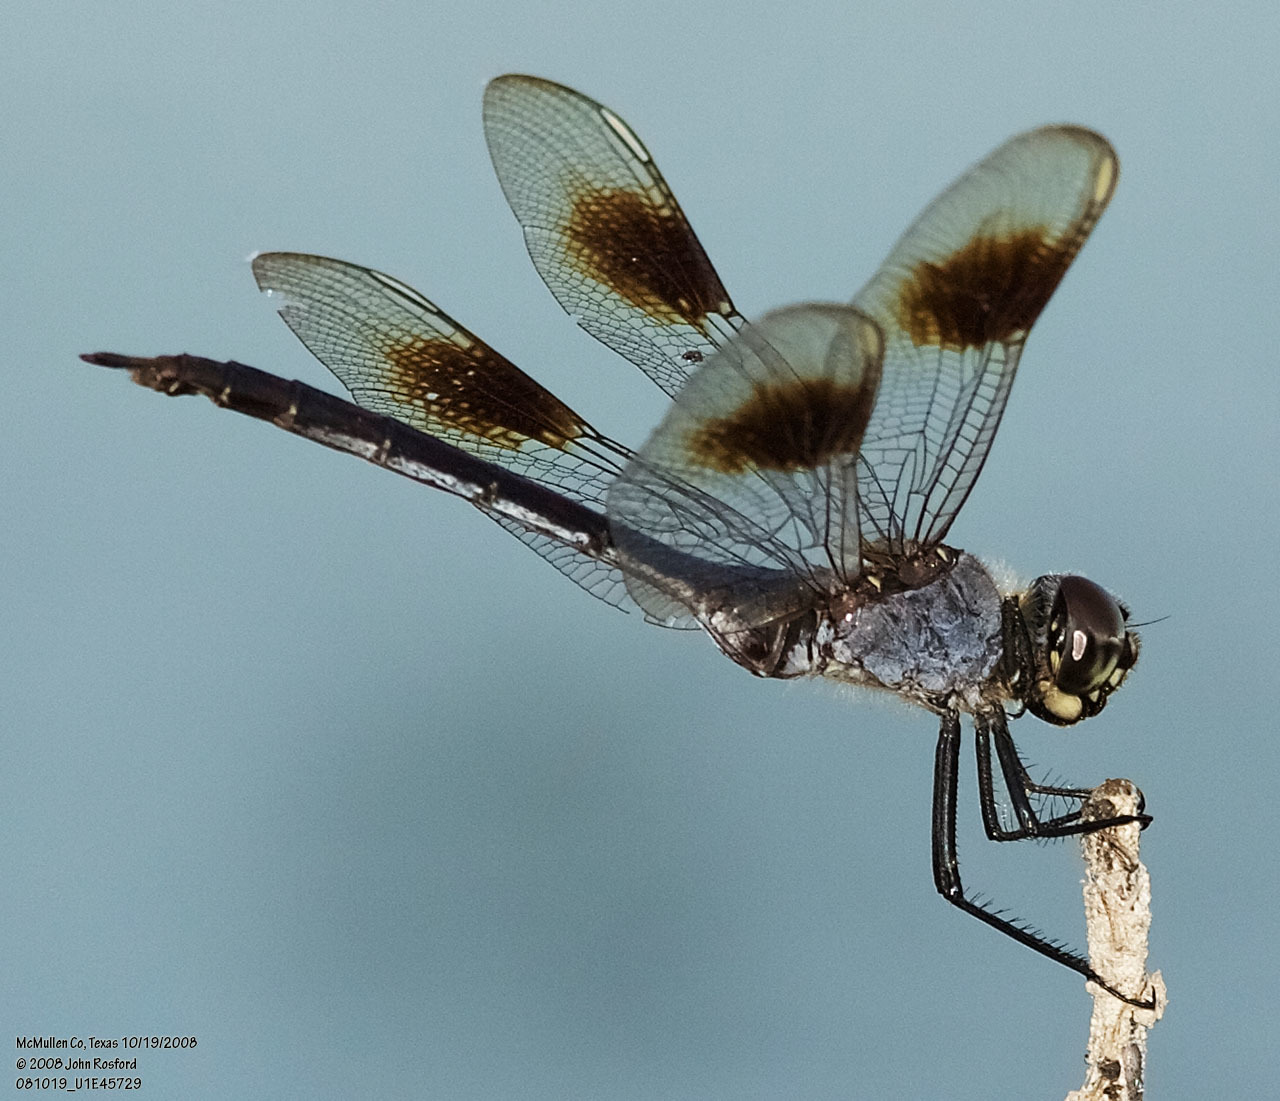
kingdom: Animalia
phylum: Arthropoda
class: Insecta
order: Odonata
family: Libellulidae
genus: Brachymesia
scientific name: Brachymesia gravida
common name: Four-spotted pennant
